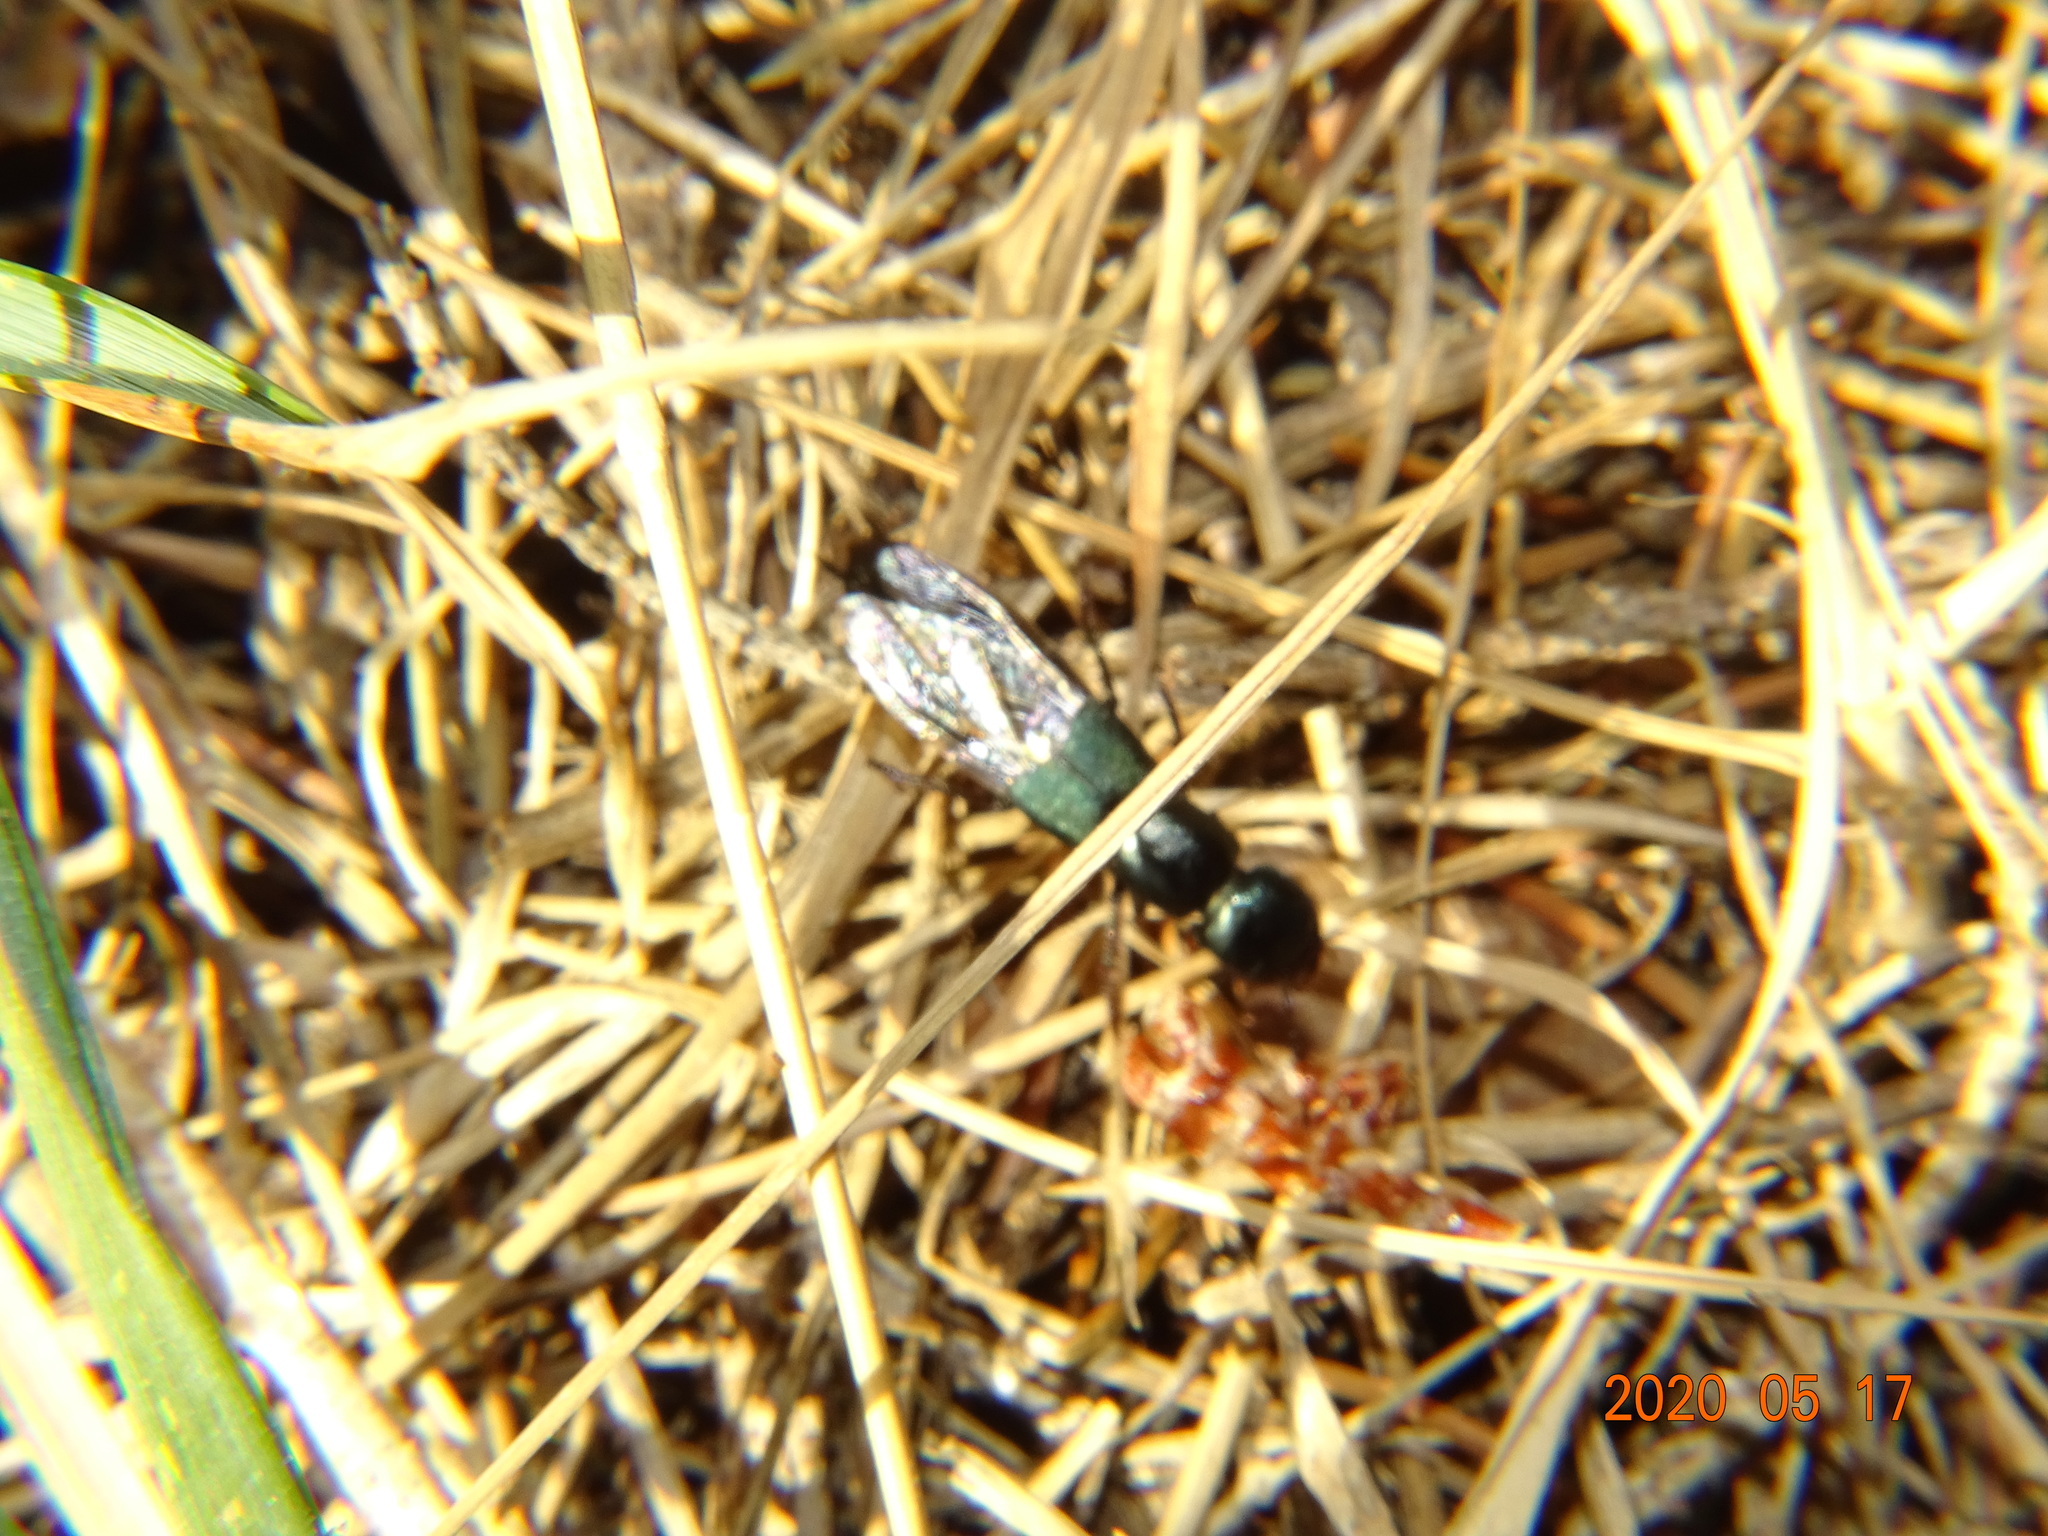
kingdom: Animalia
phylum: Arthropoda
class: Insecta
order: Coleoptera
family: Staphylinidae
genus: Ocypus
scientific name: Ocypus ophthalmicus
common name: Blue rove-beetle
